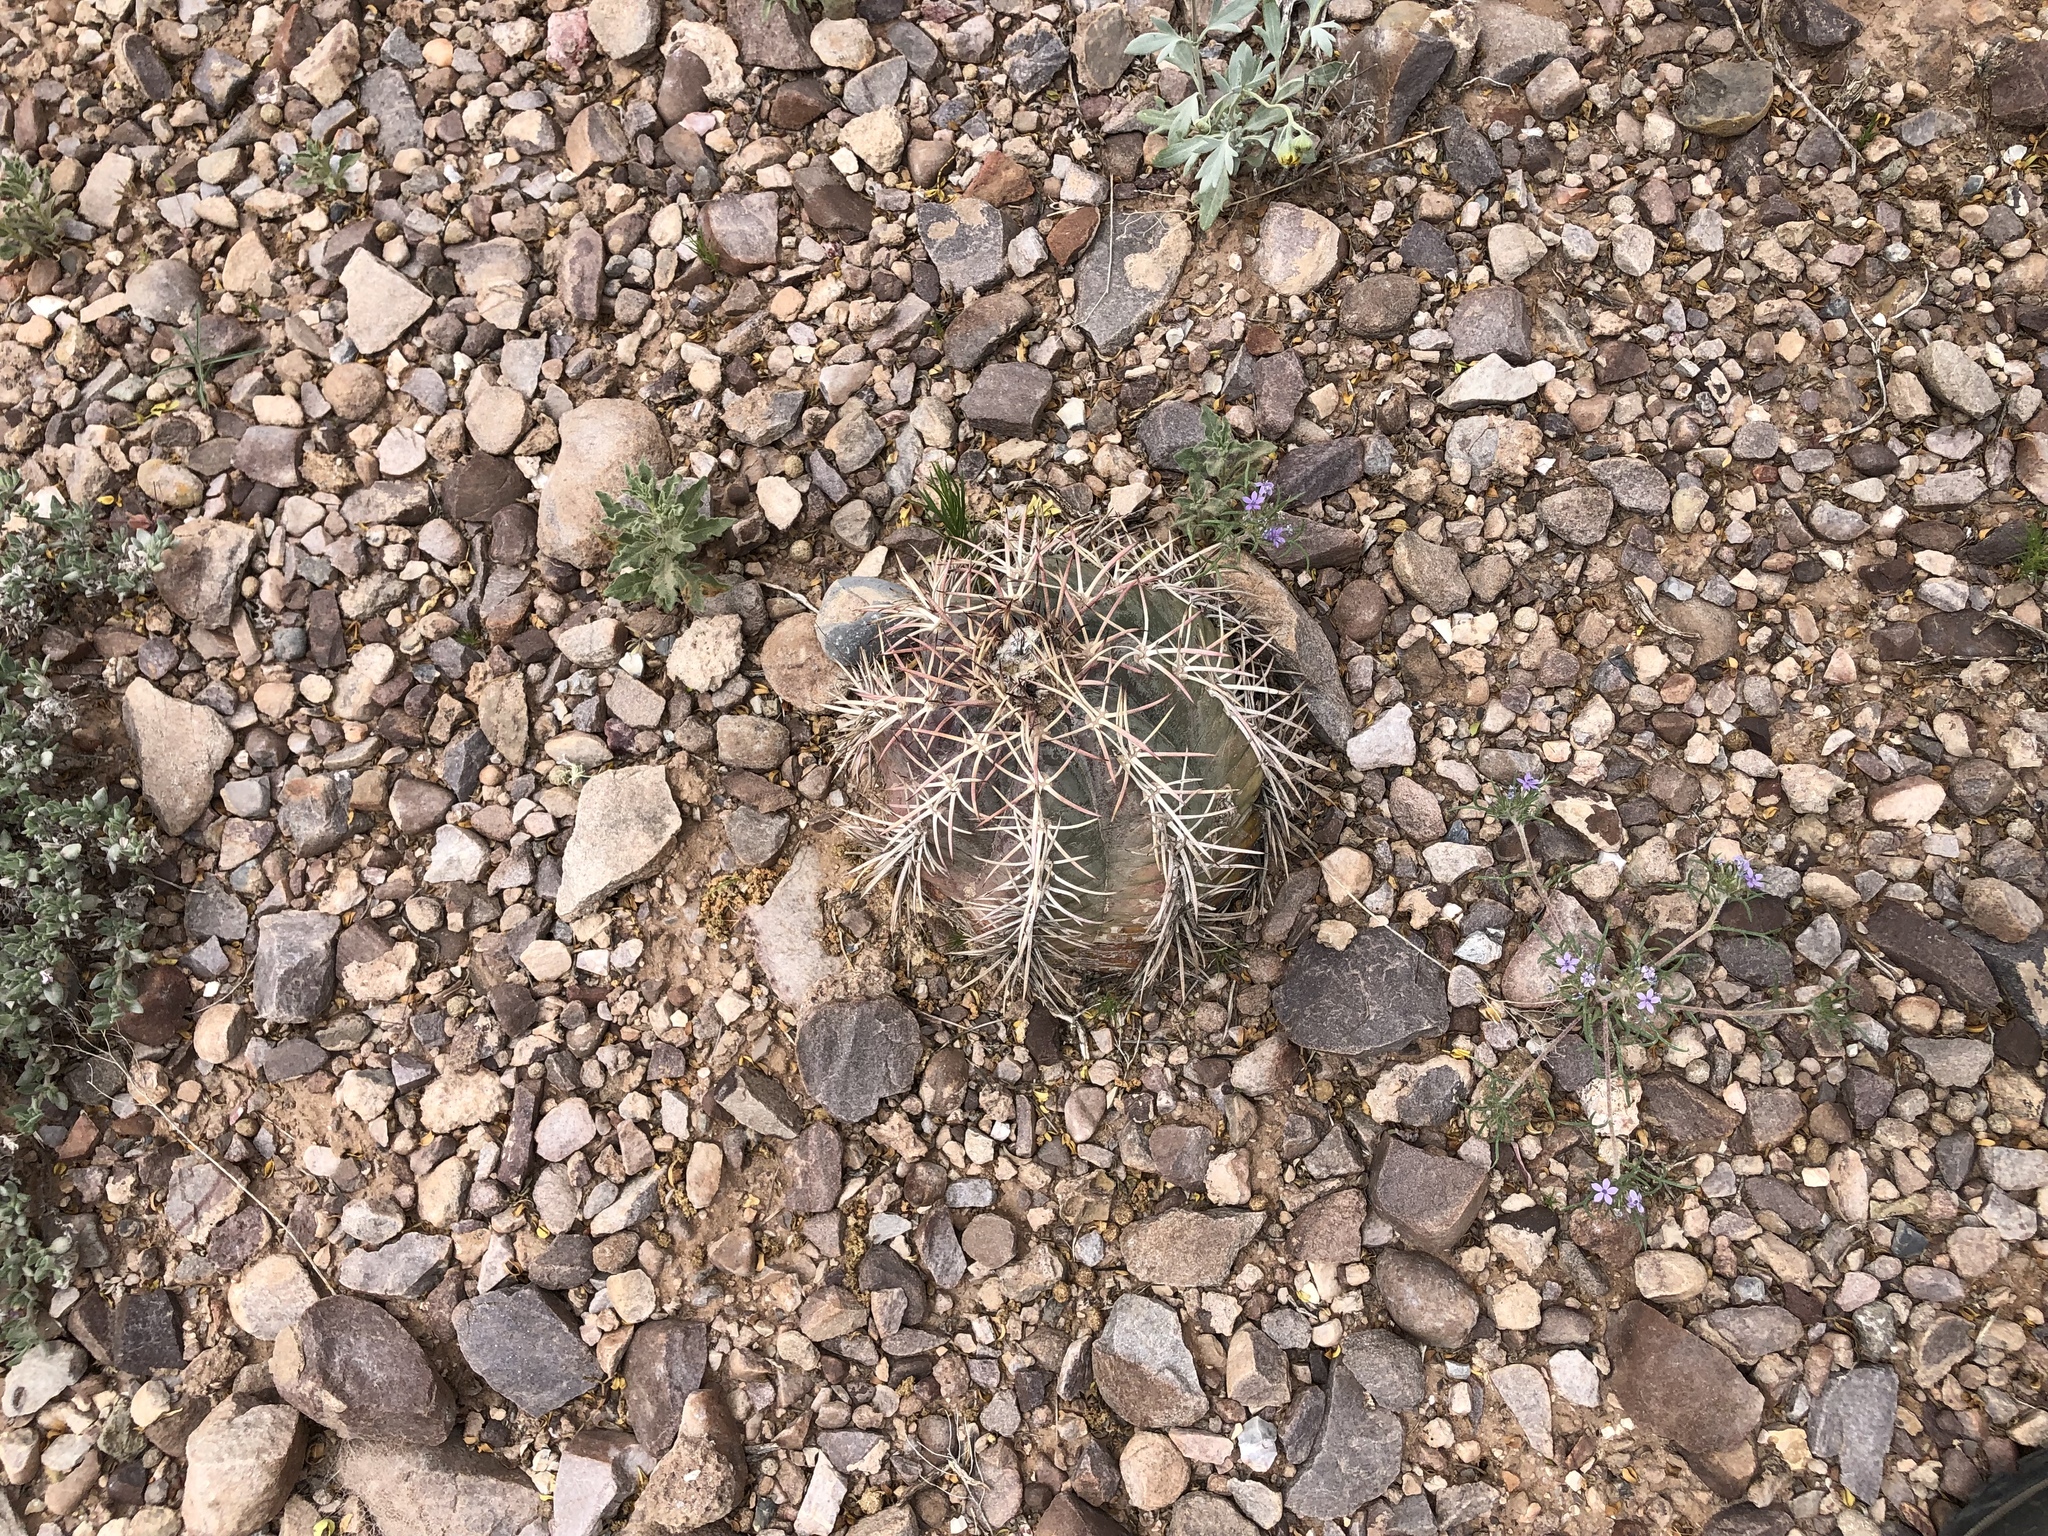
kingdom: Plantae
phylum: Tracheophyta
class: Magnoliopsida
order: Caryophyllales
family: Cactaceae
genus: Echinocactus
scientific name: Echinocactus horizonthalonius
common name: Devilshead
